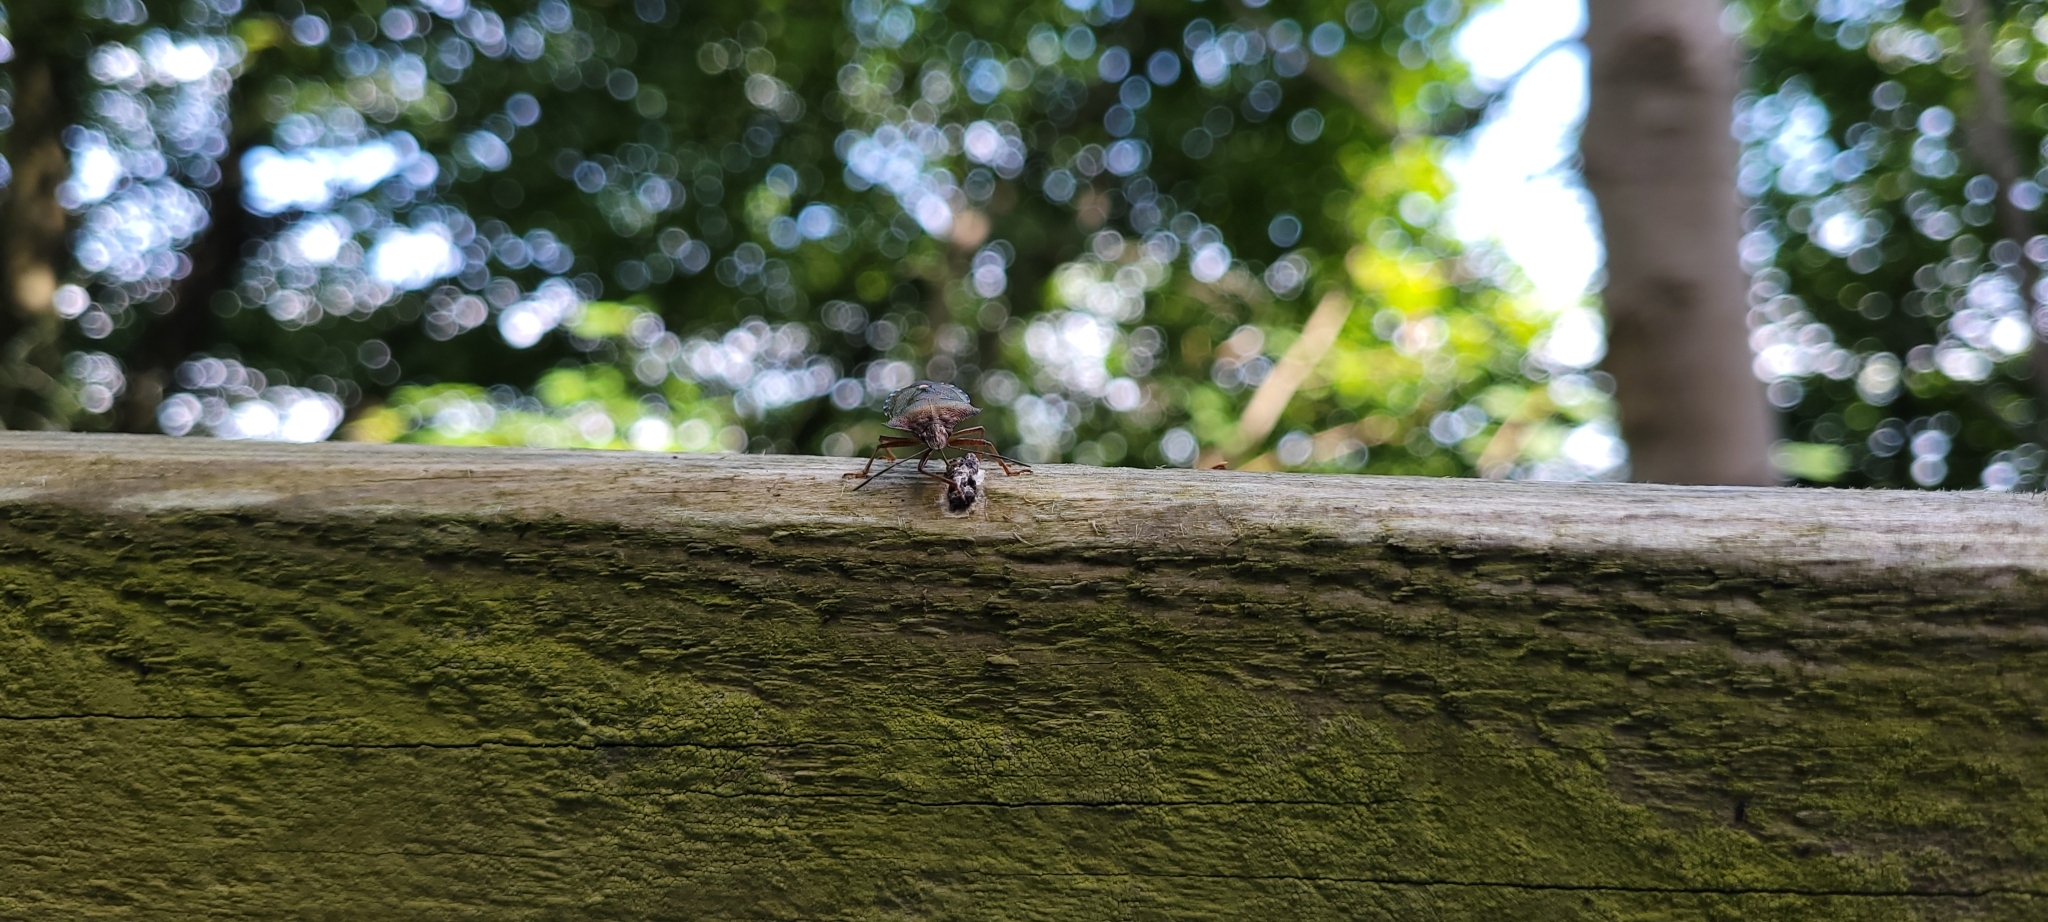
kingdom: Animalia
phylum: Arthropoda
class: Insecta
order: Hemiptera
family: Pentatomidae
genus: Pentatoma
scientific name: Pentatoma rufipes
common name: Forest bug
